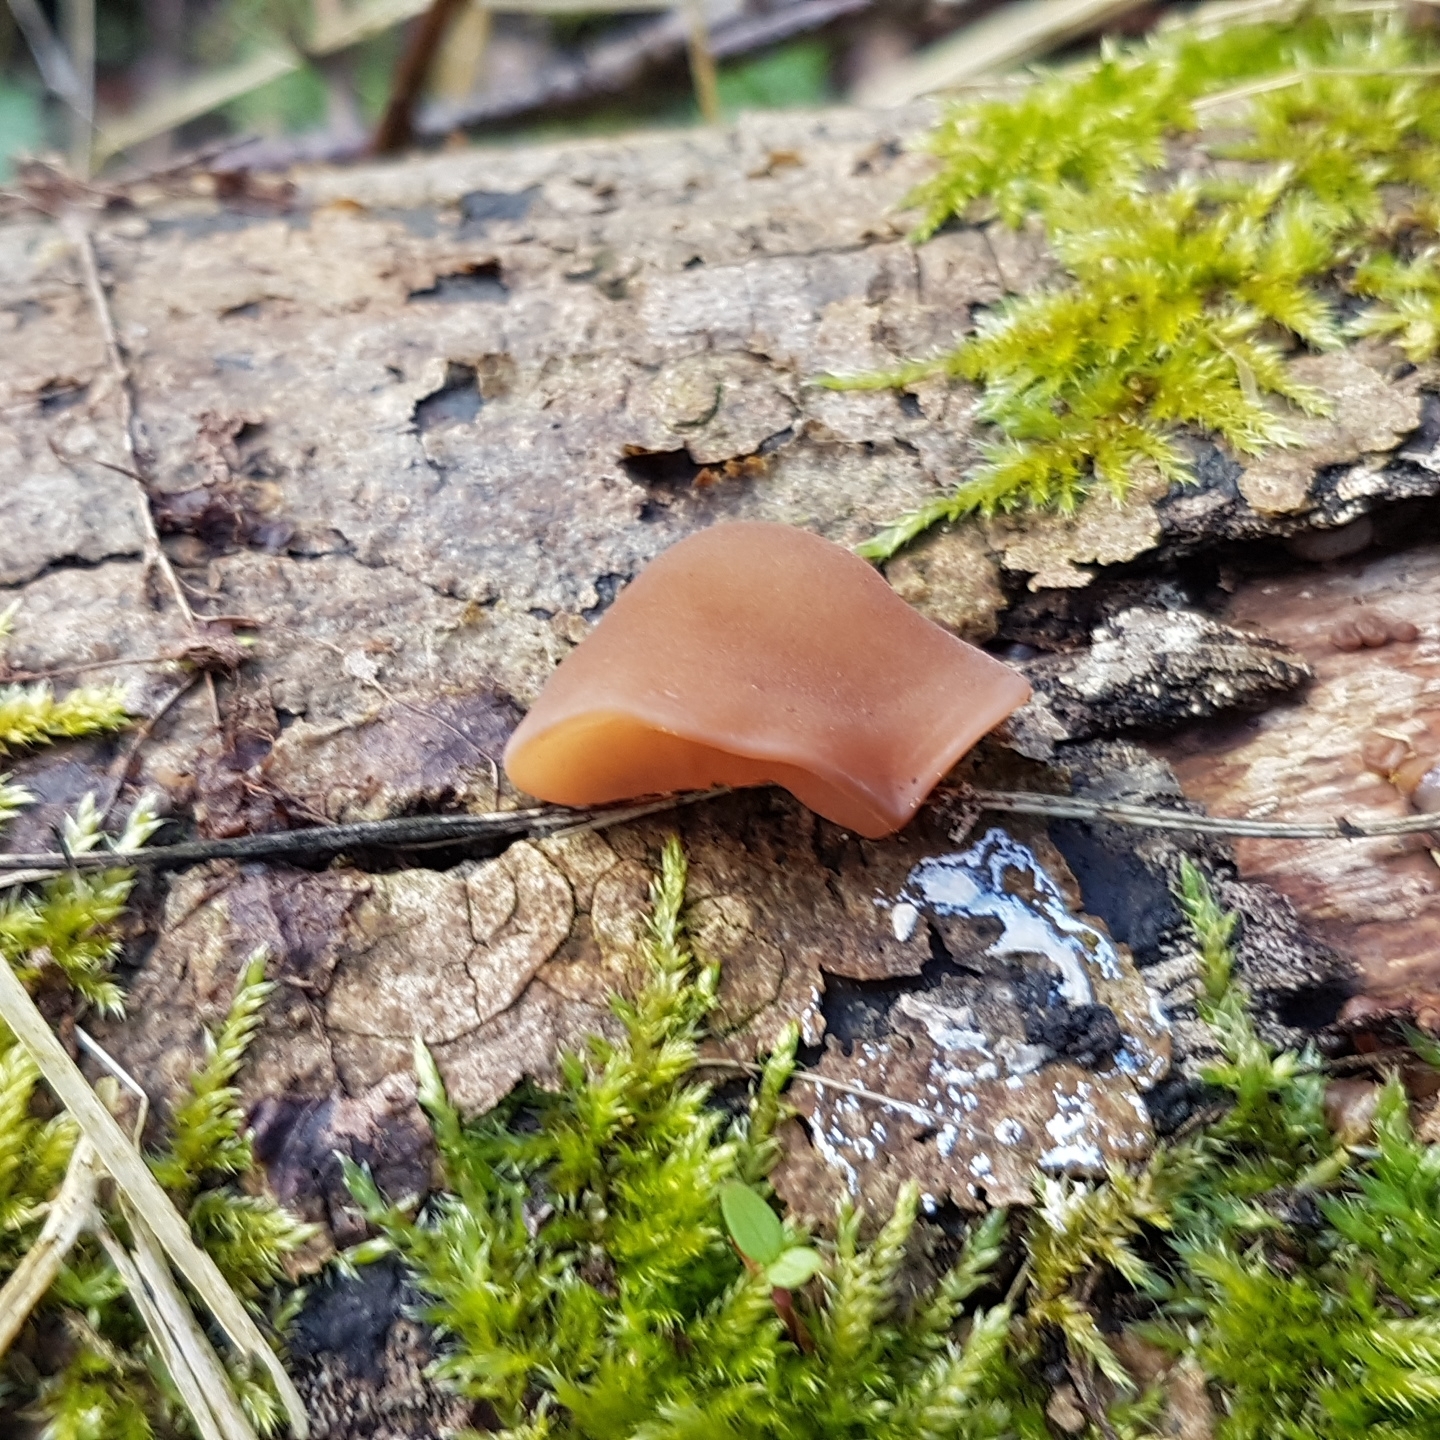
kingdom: Fungi
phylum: Basidiomycota
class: Agaricomycetes
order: Auriculariales
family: Auriculariaceae
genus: Auricularia
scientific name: Auricularia auricula-judae
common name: Jelly ear
